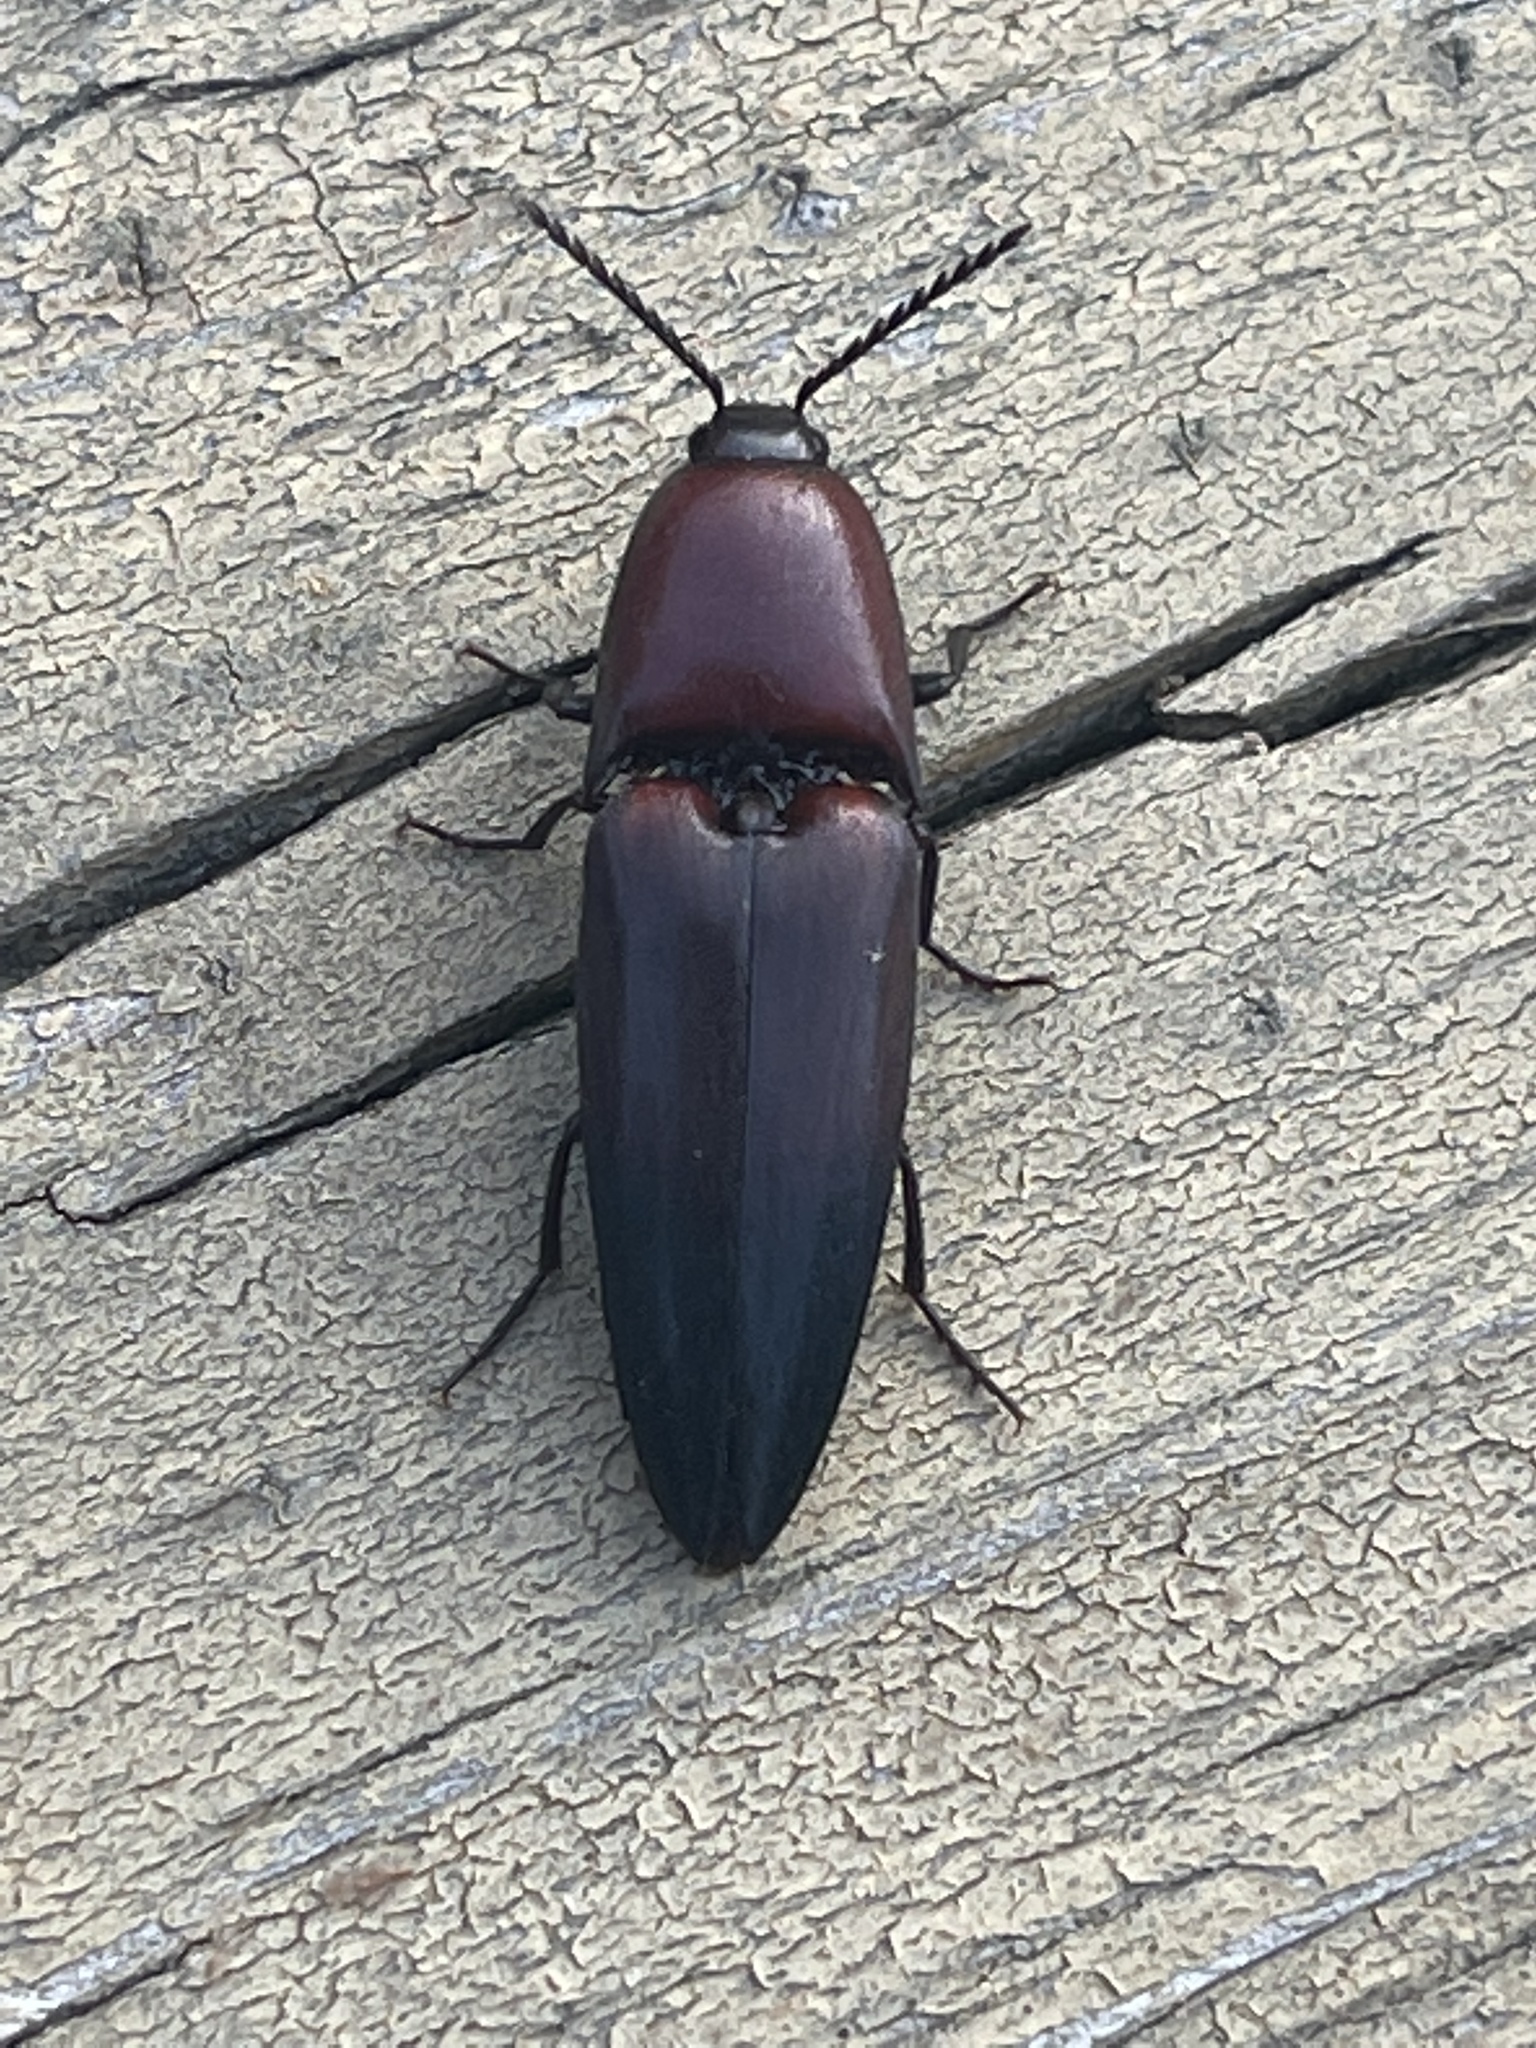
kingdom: Animalia
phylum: Arthropoda
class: Insecta
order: Coleoptera
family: Elateridae
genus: Parallelostethus
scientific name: Parallelostethus attenuatus
